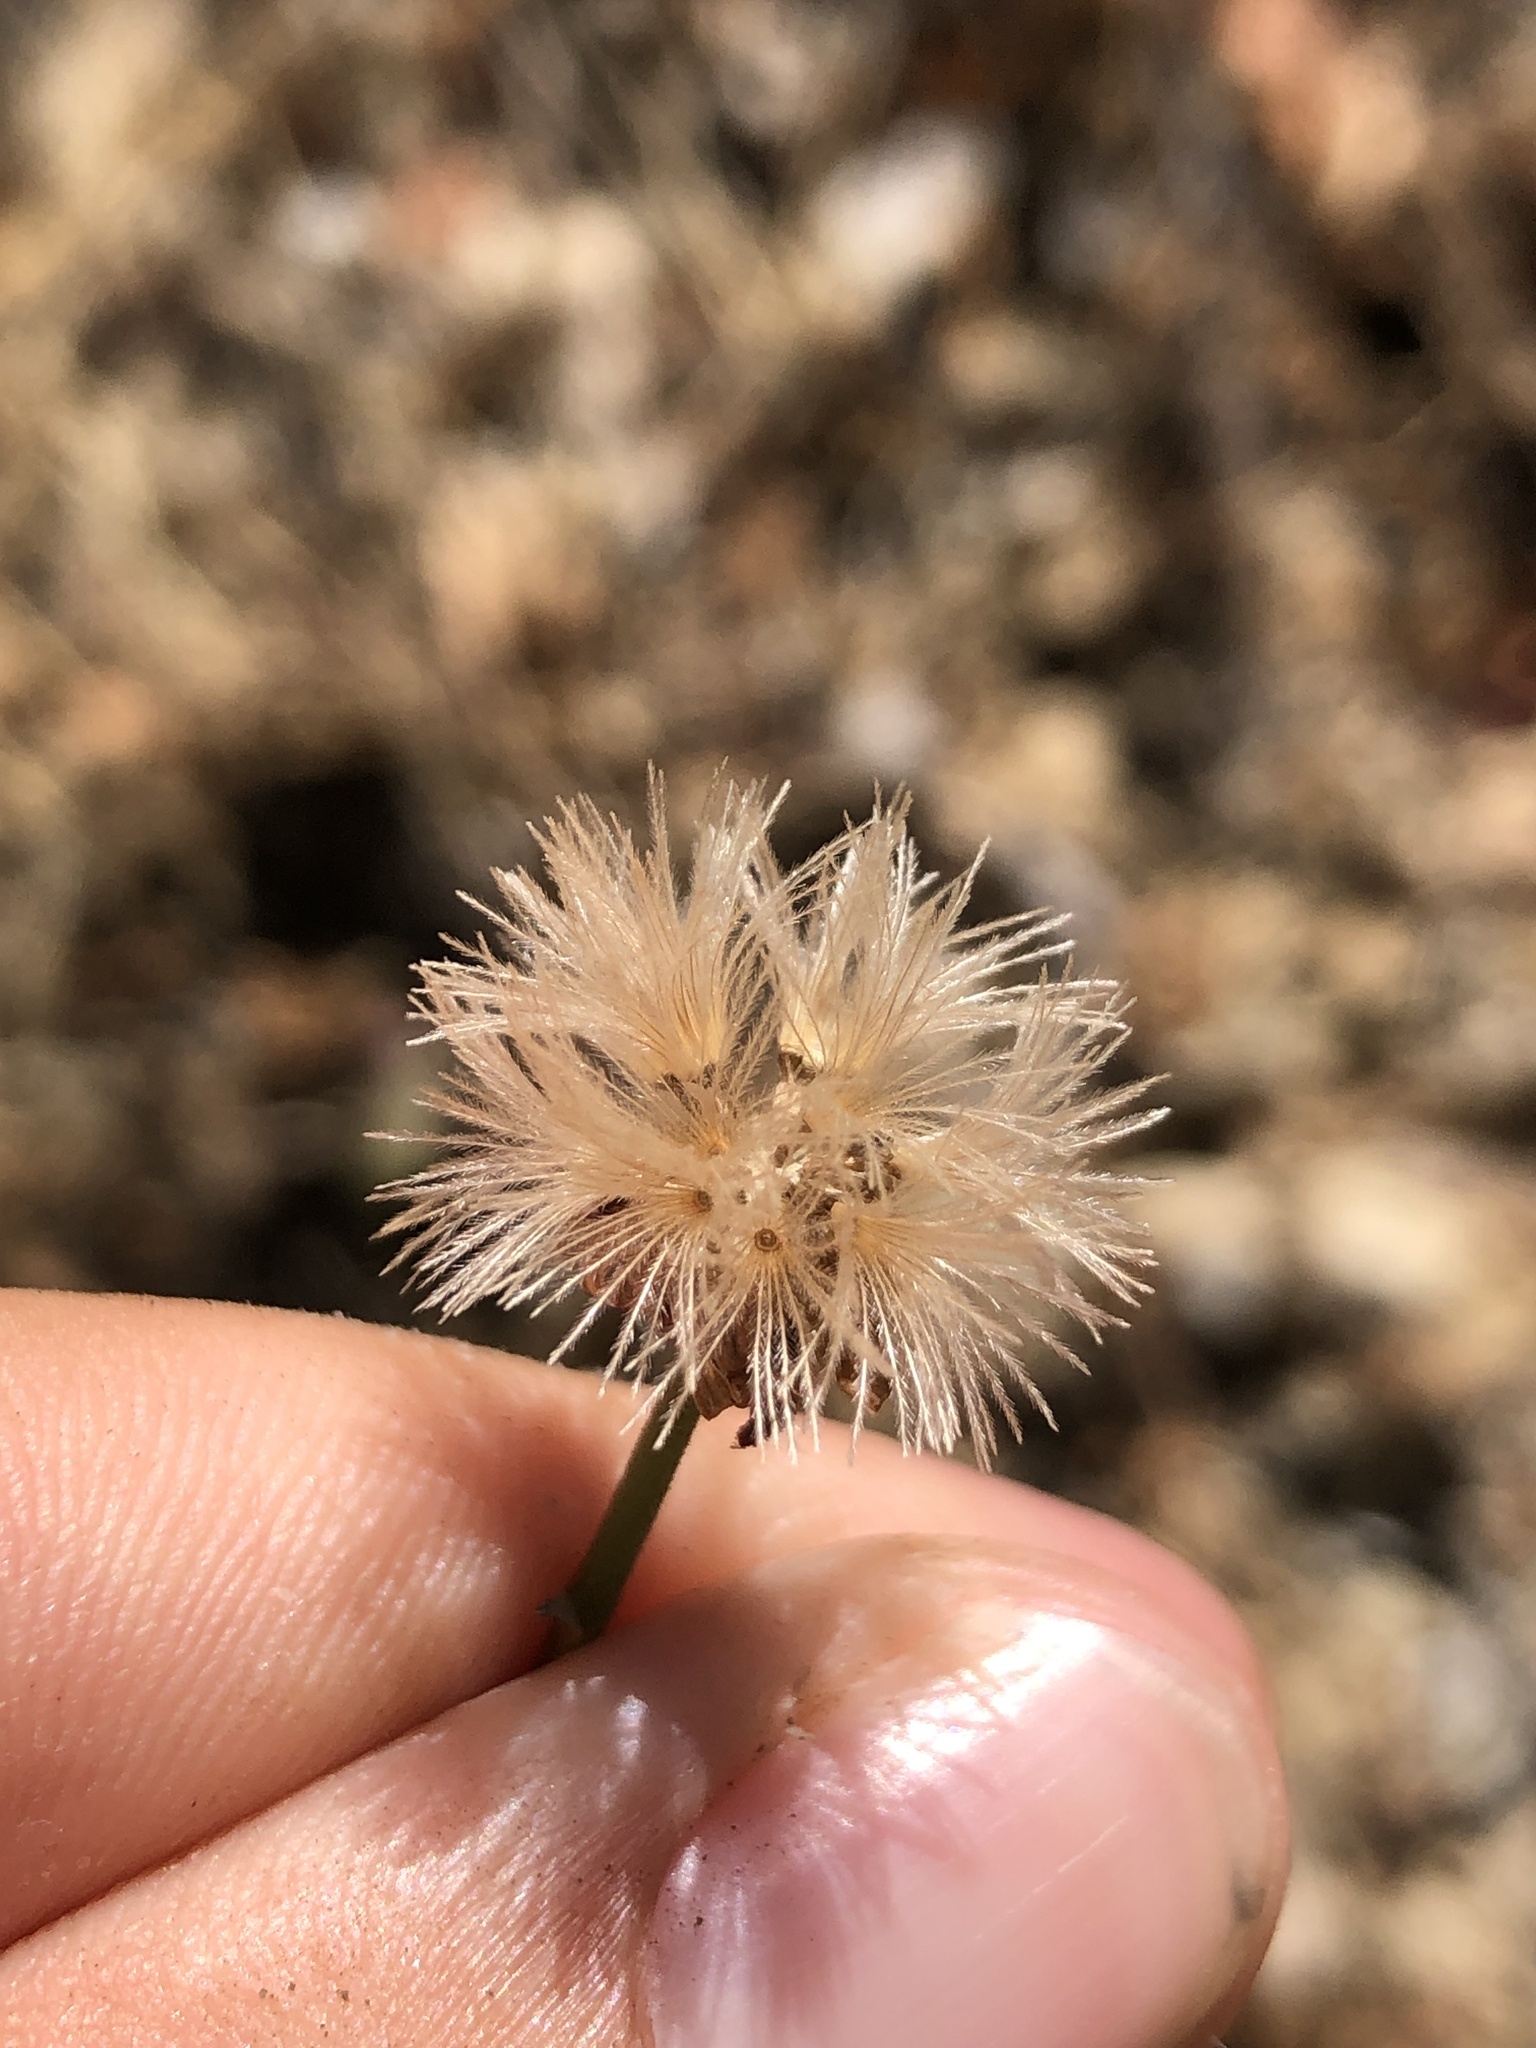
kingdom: Plantae
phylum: Tracheophyta
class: Magnoliopsida
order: Asterales
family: Asteraceae
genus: Stephanomeria
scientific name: Stephanomeria cichoriacea
